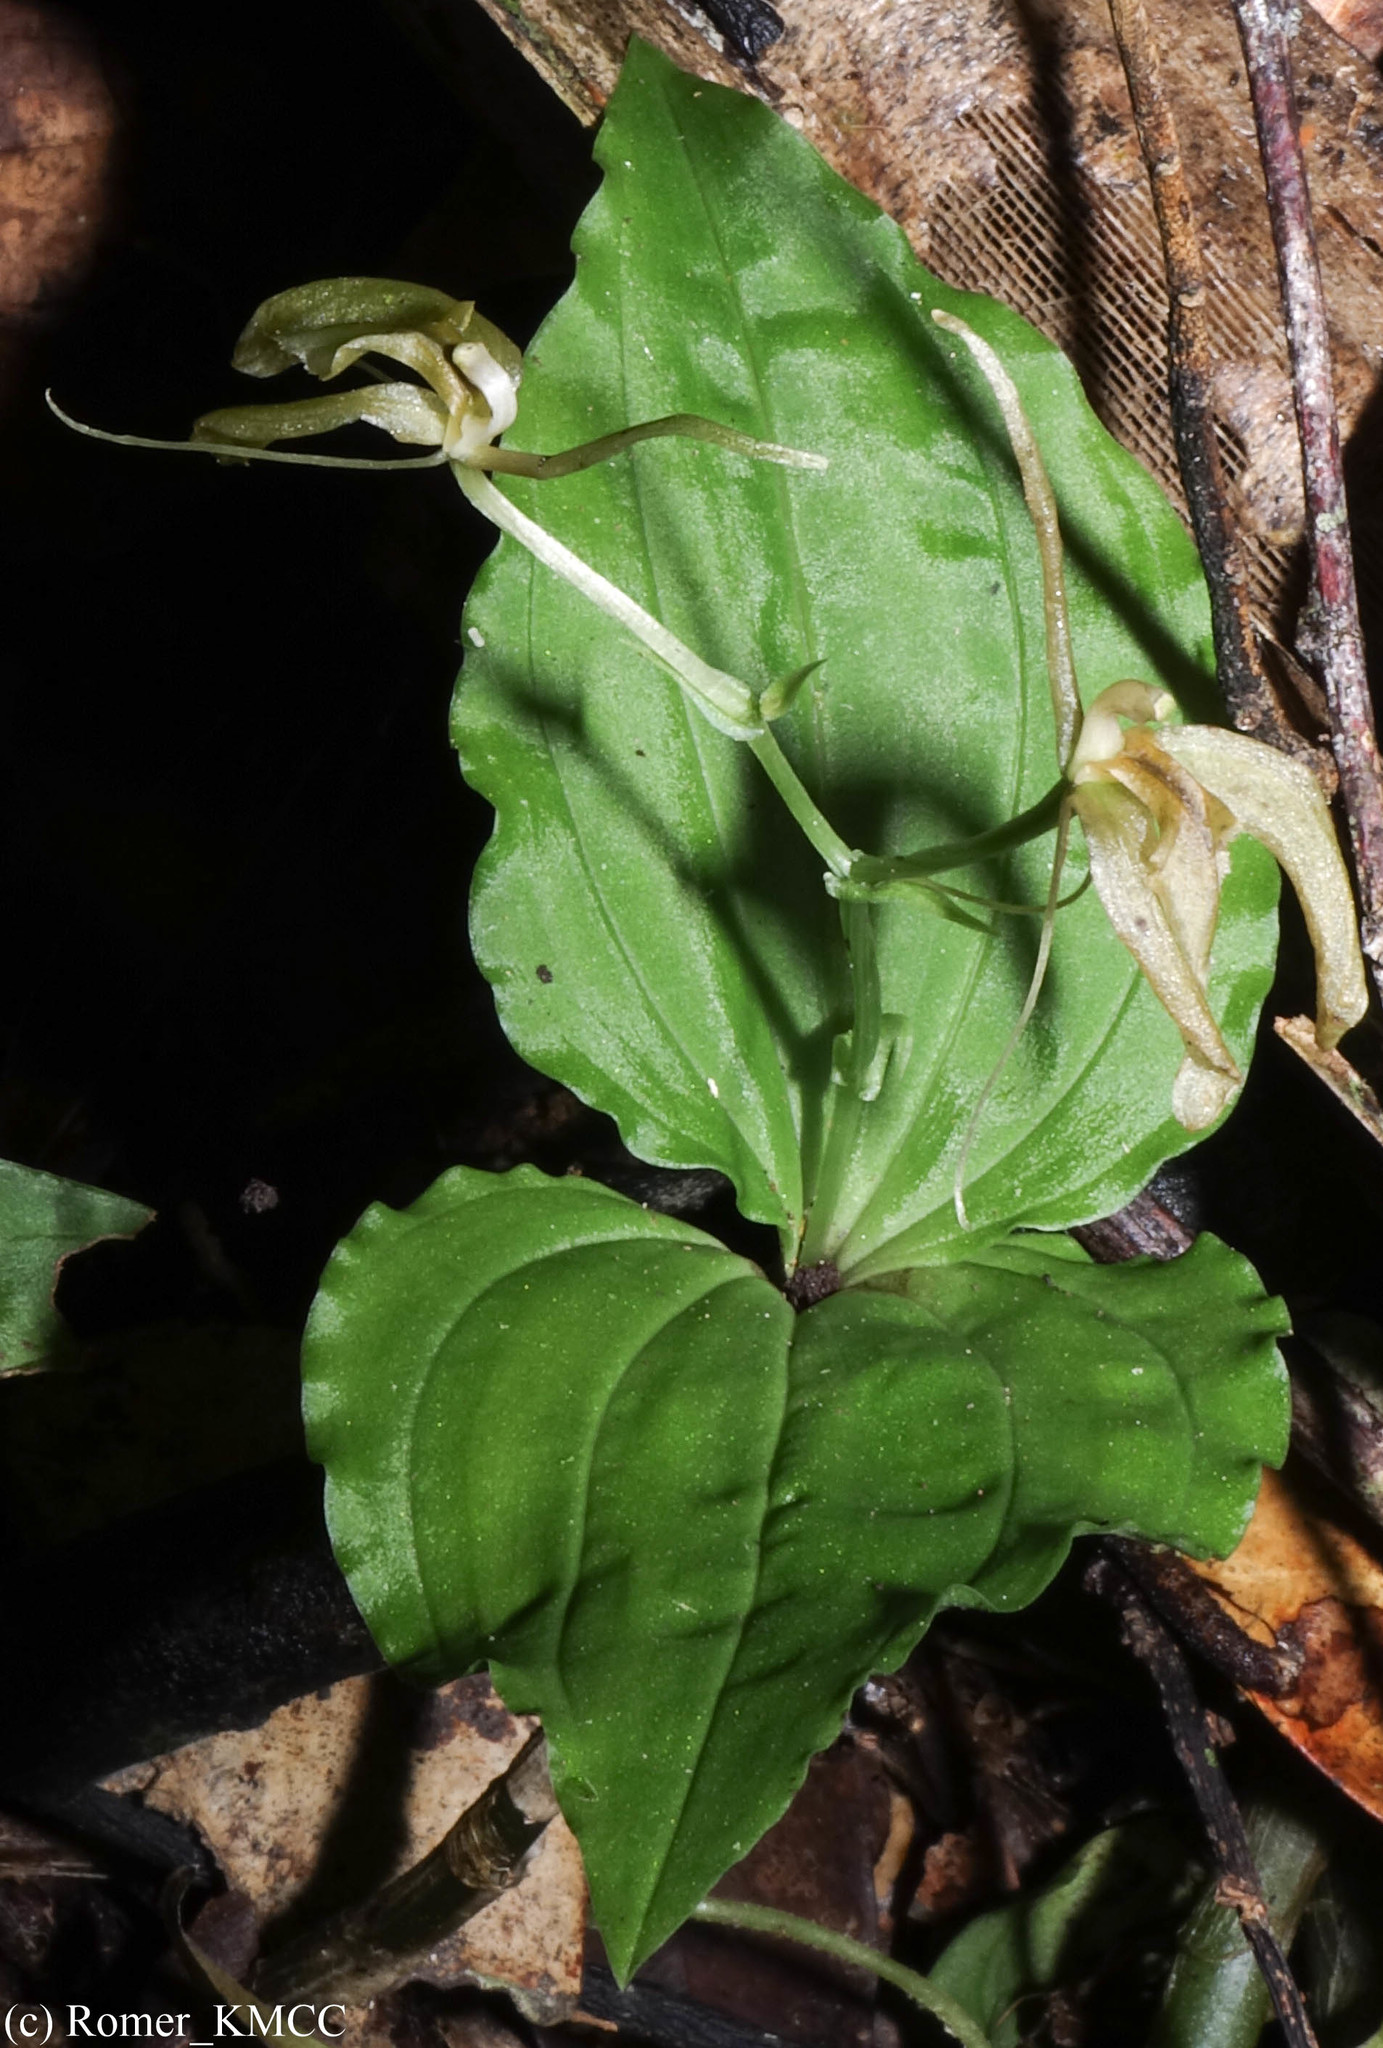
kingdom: Plantae
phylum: Tracheophyta
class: Liliopsida
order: Asparagales
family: Orchidaceae
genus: Liparis
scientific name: Liparis longicaulis
